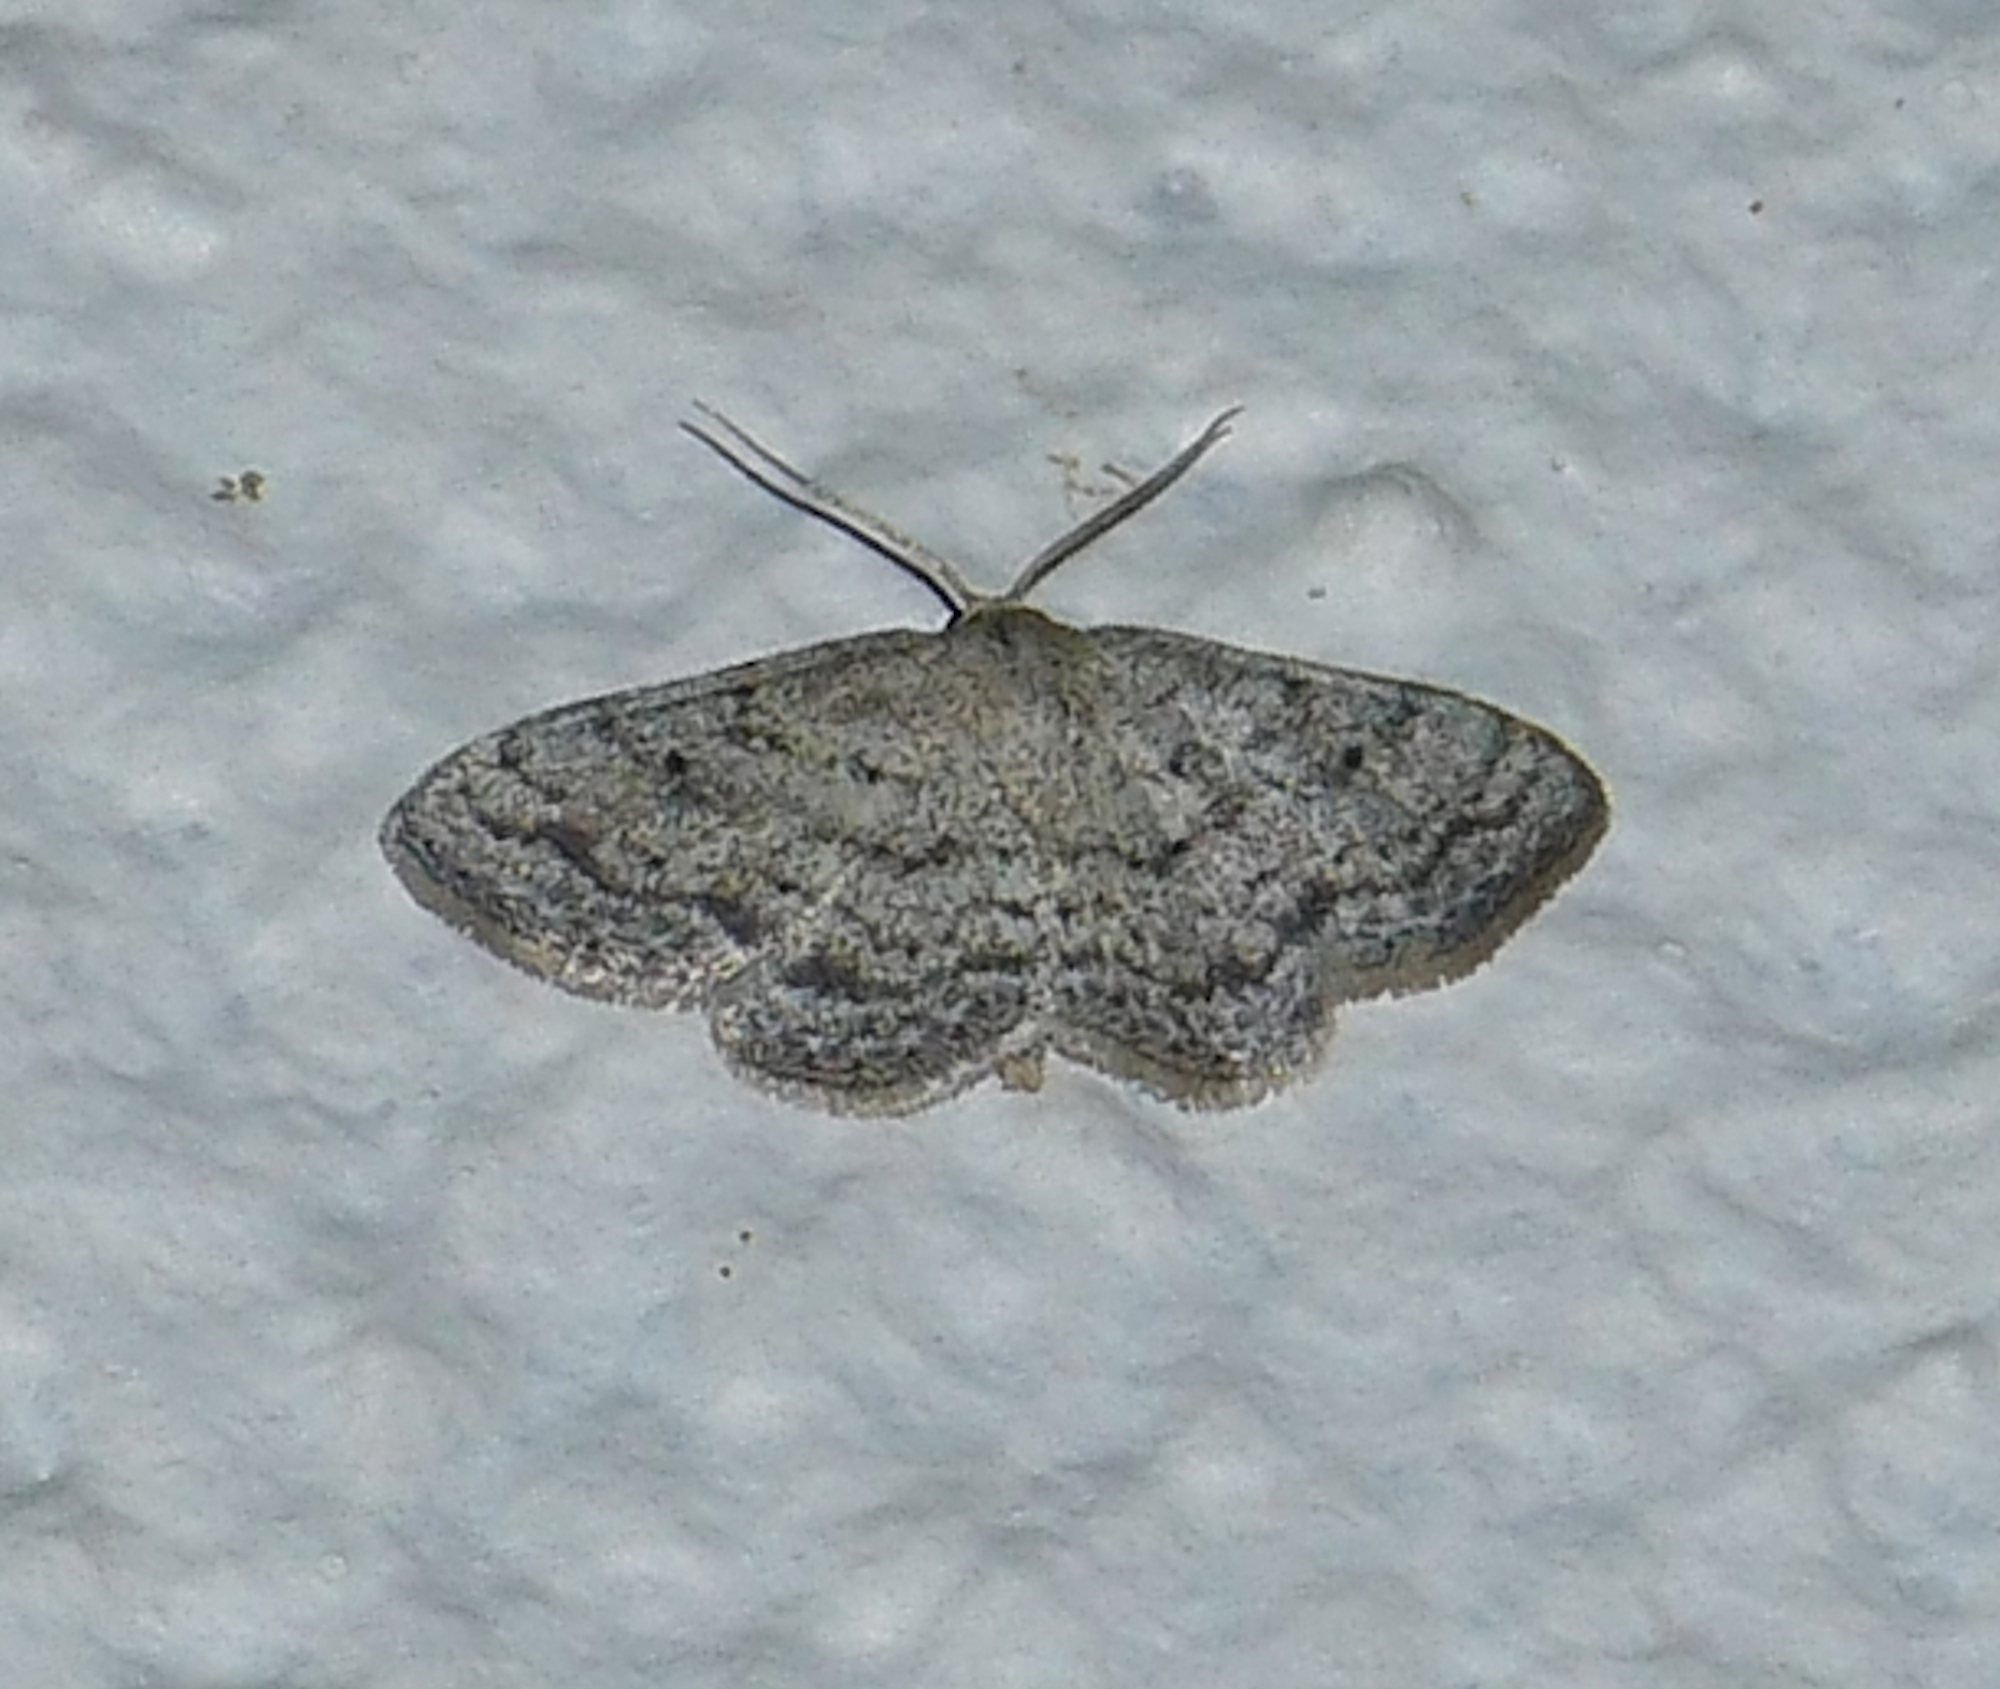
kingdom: Animalia
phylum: Arthropoda
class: Insecta
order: Lepidoptera
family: Geometridae
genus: Lobocleta
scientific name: Lobocleta ossularia
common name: Drab brown wave
